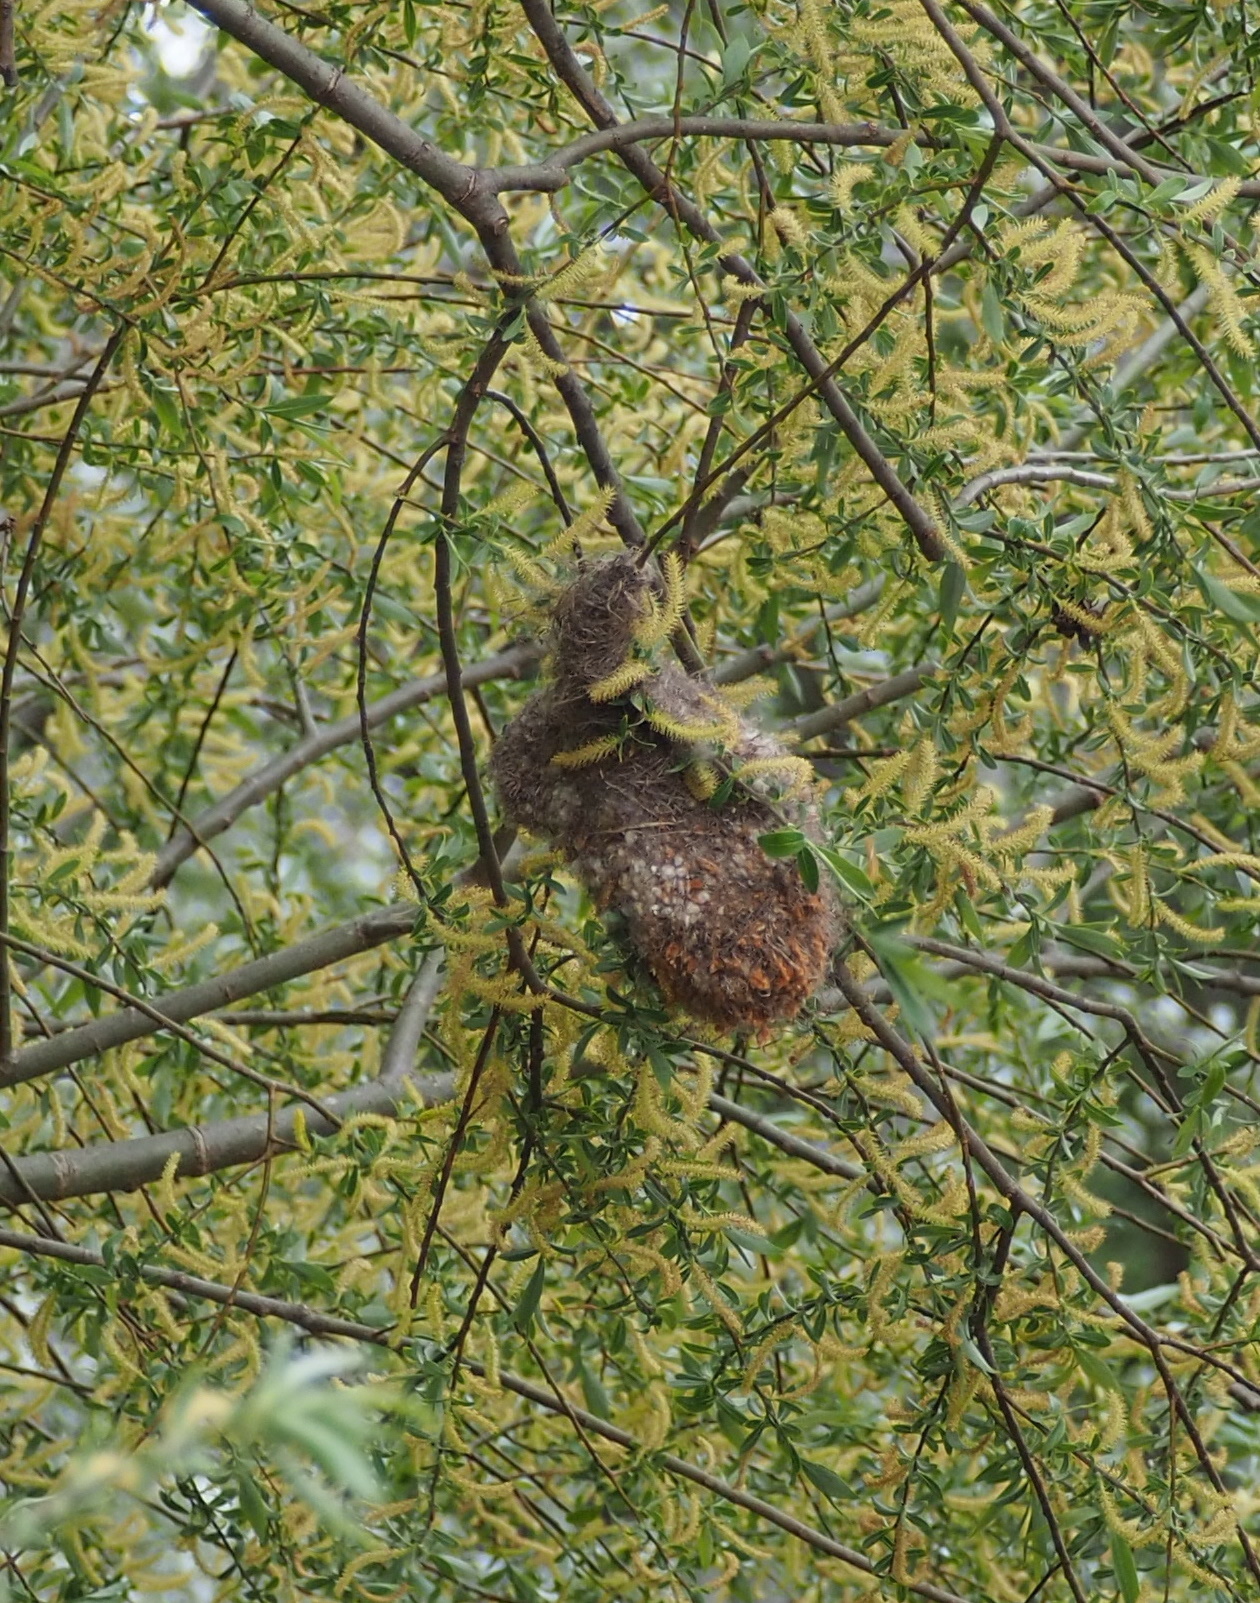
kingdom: Animalia
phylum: Chordata
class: Aves
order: Passeriformes
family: Remizidae
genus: Remiz
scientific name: Remiz pendulinus
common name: Eurasian penduline tit
